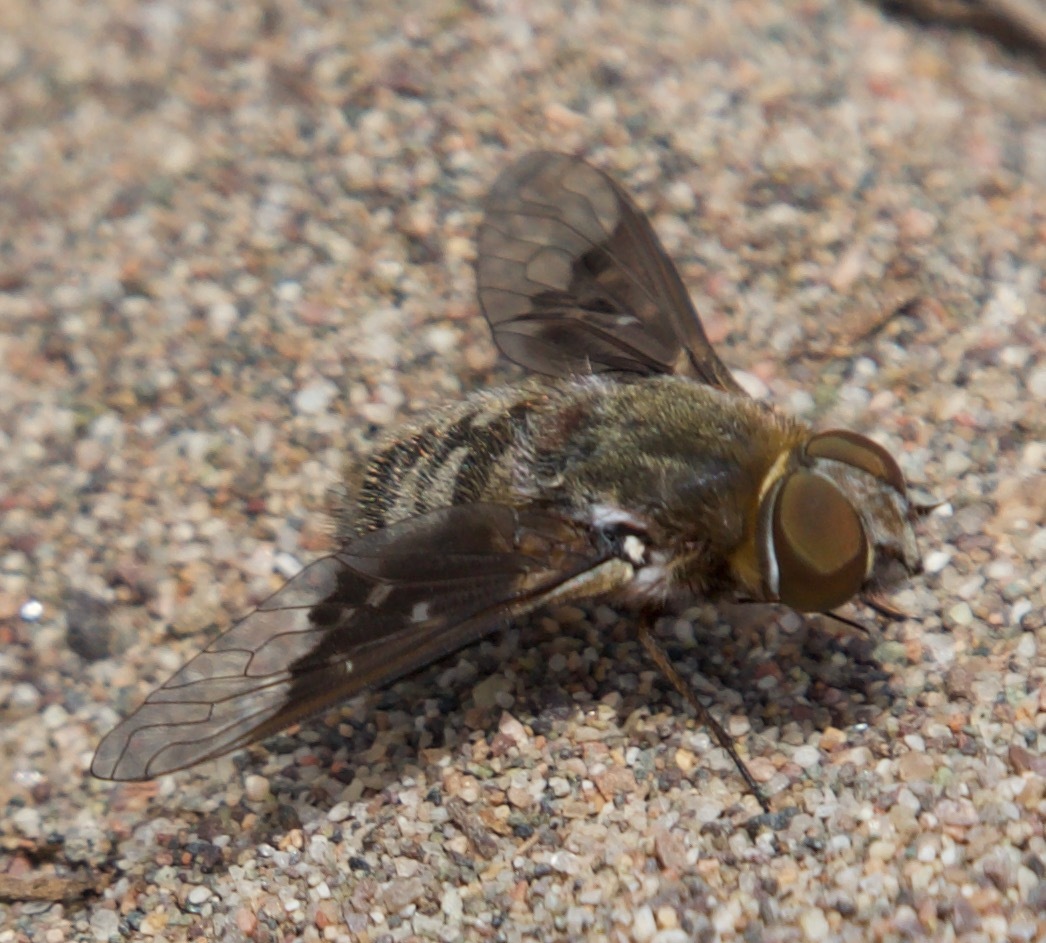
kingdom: Animalia
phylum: Arthropoda
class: Insecta
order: Diptera
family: Bombyliidae
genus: Paravilla
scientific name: Paravilla hypoxantha
